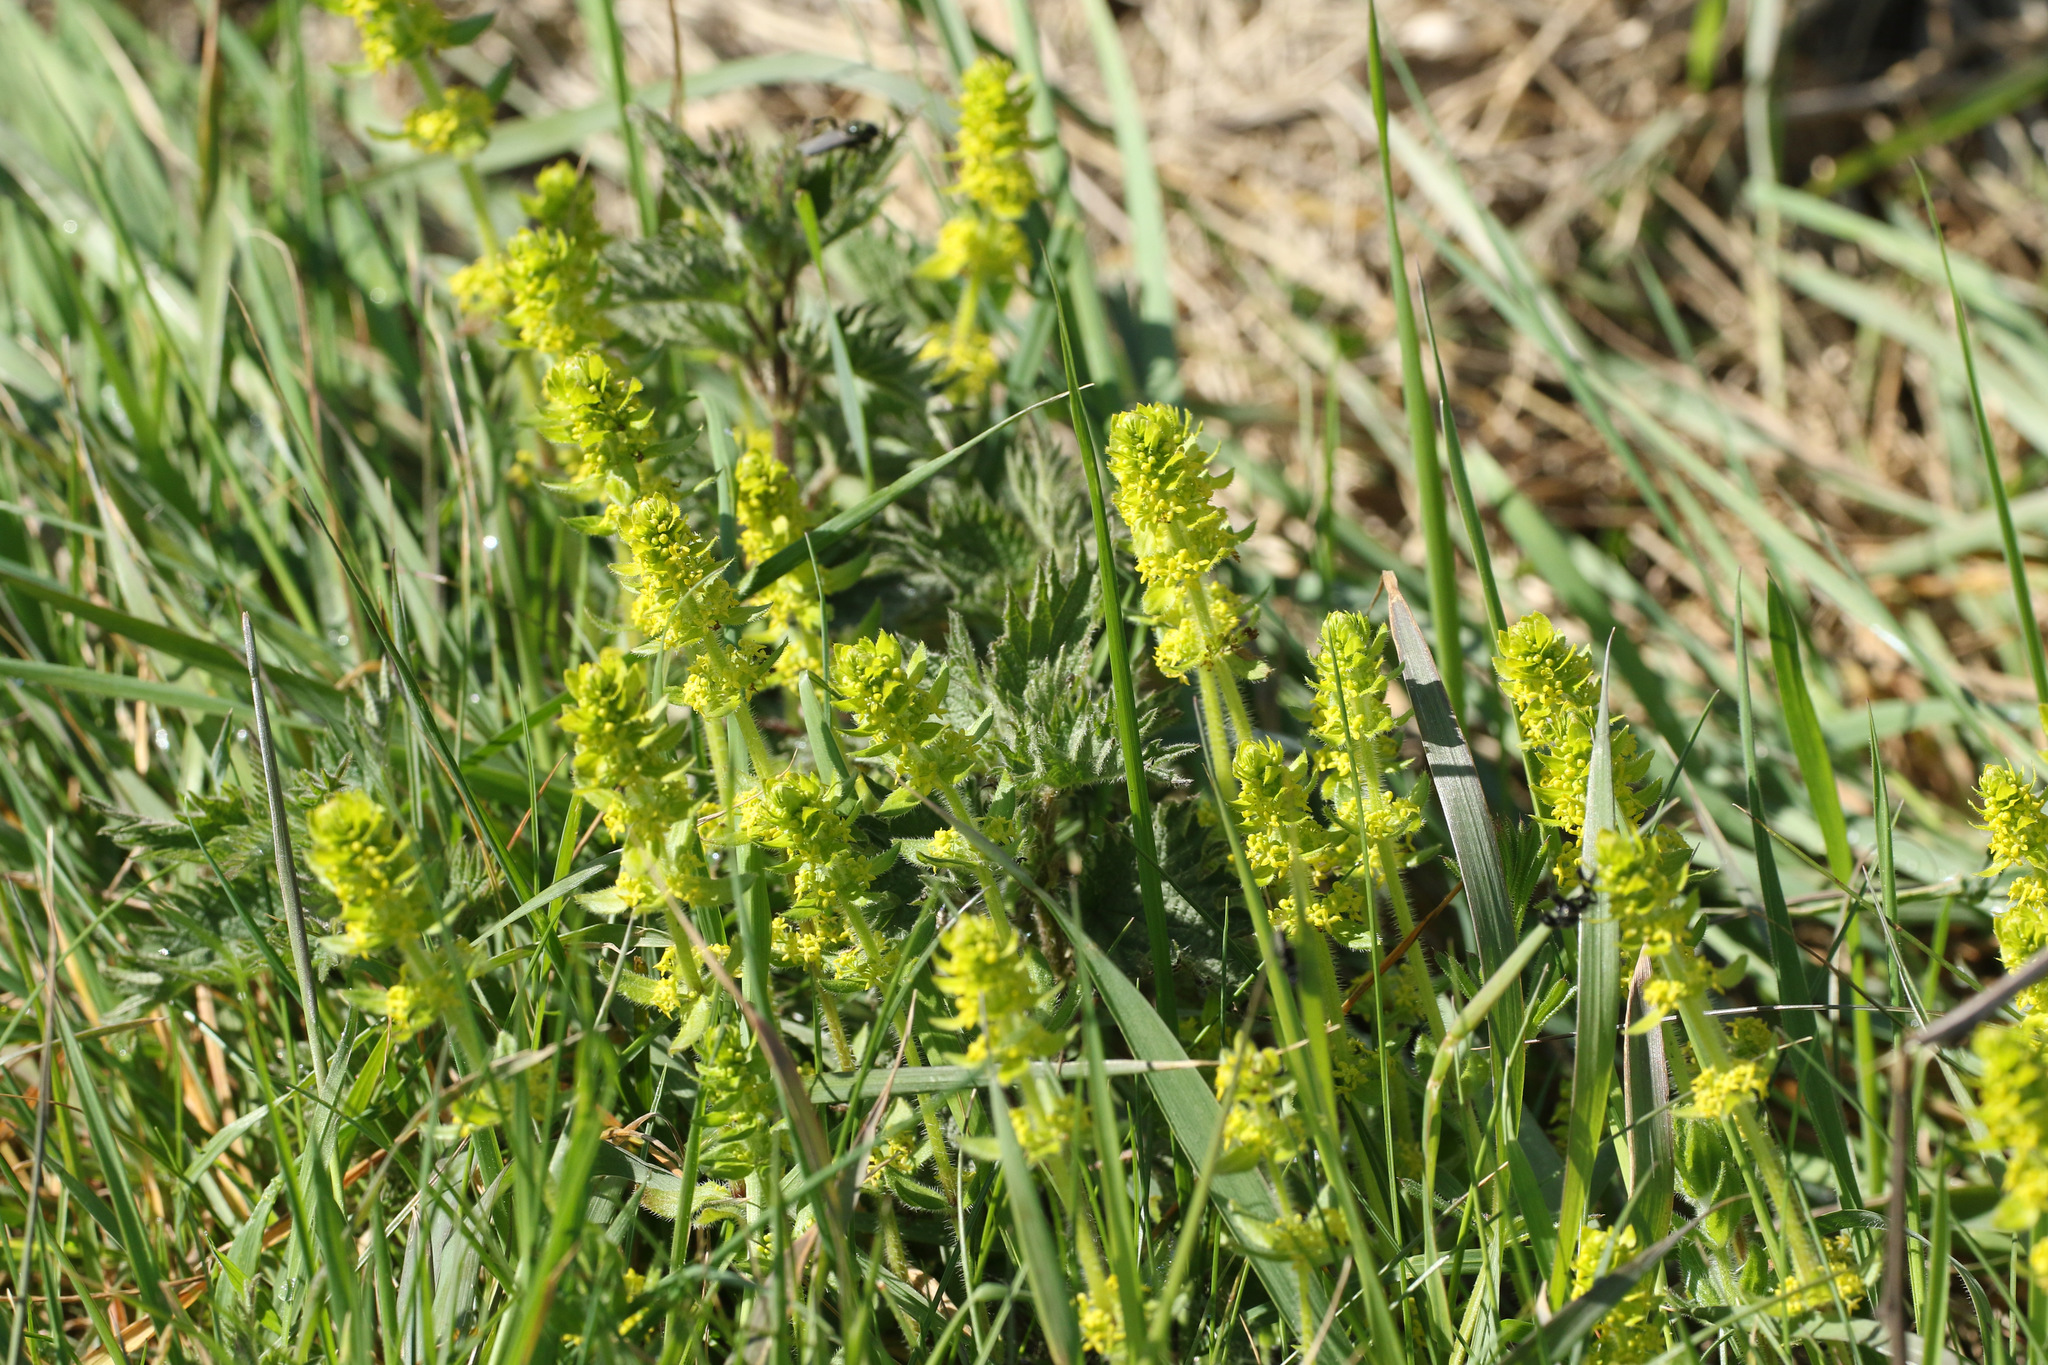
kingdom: Plantae
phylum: Tracheophyta
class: Magnoliopsida
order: Gentianales
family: Rubiaceae
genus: Cruciata
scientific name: Cruciata laevipes
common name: Crosswort
